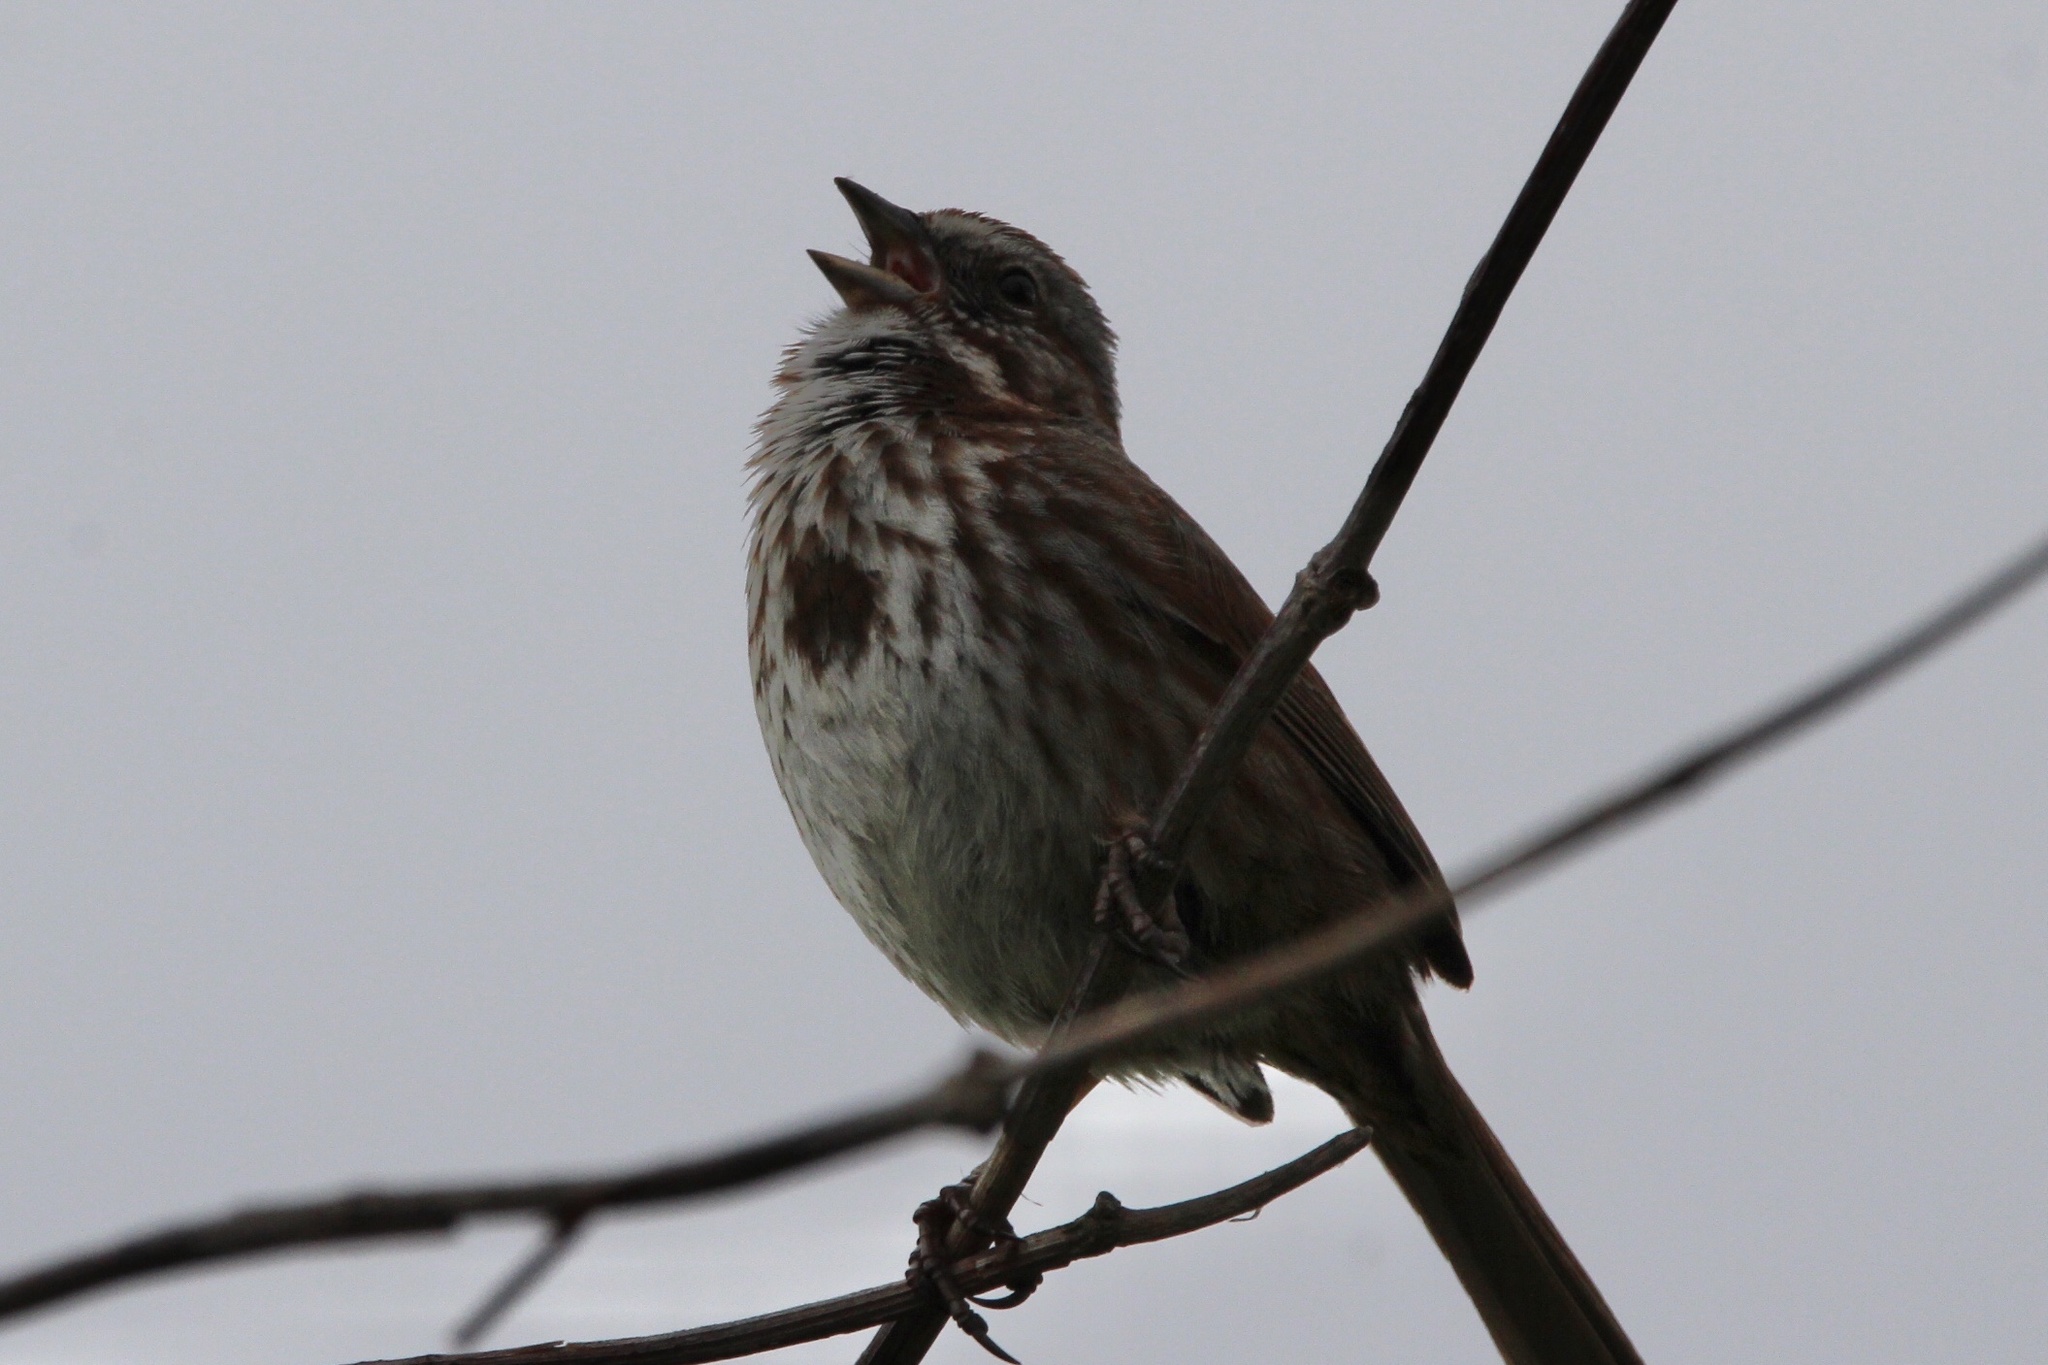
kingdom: Animalia
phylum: Chordata
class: Aves
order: Passeriformes
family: Passerellidae
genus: Melospiza
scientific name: Melospiza melodia
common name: Song sparrow
